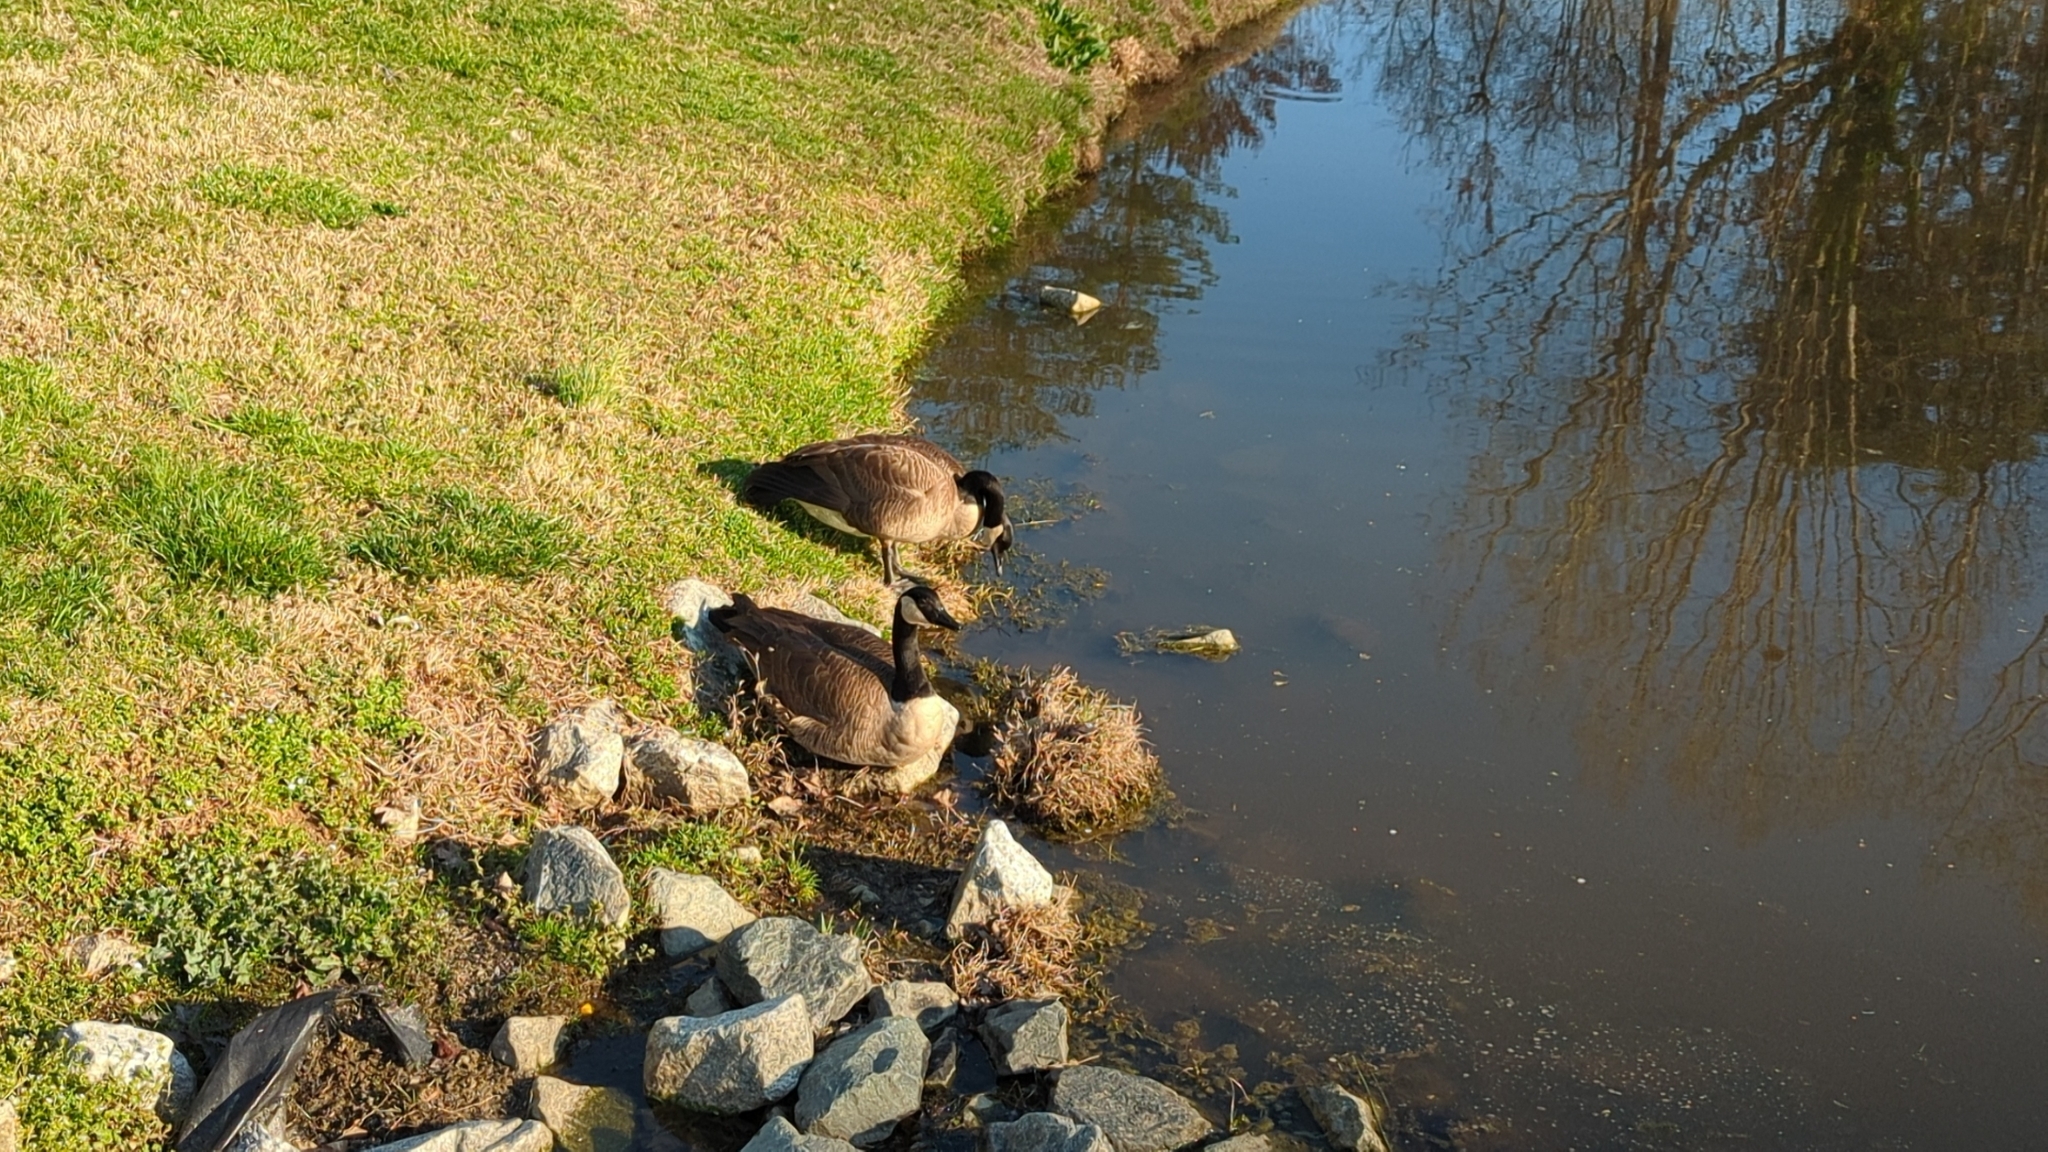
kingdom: Animalia
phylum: Chordata
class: Aves
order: Anseriformes
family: Anatidae
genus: Branta
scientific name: Branta canadensis
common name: Canada goose
